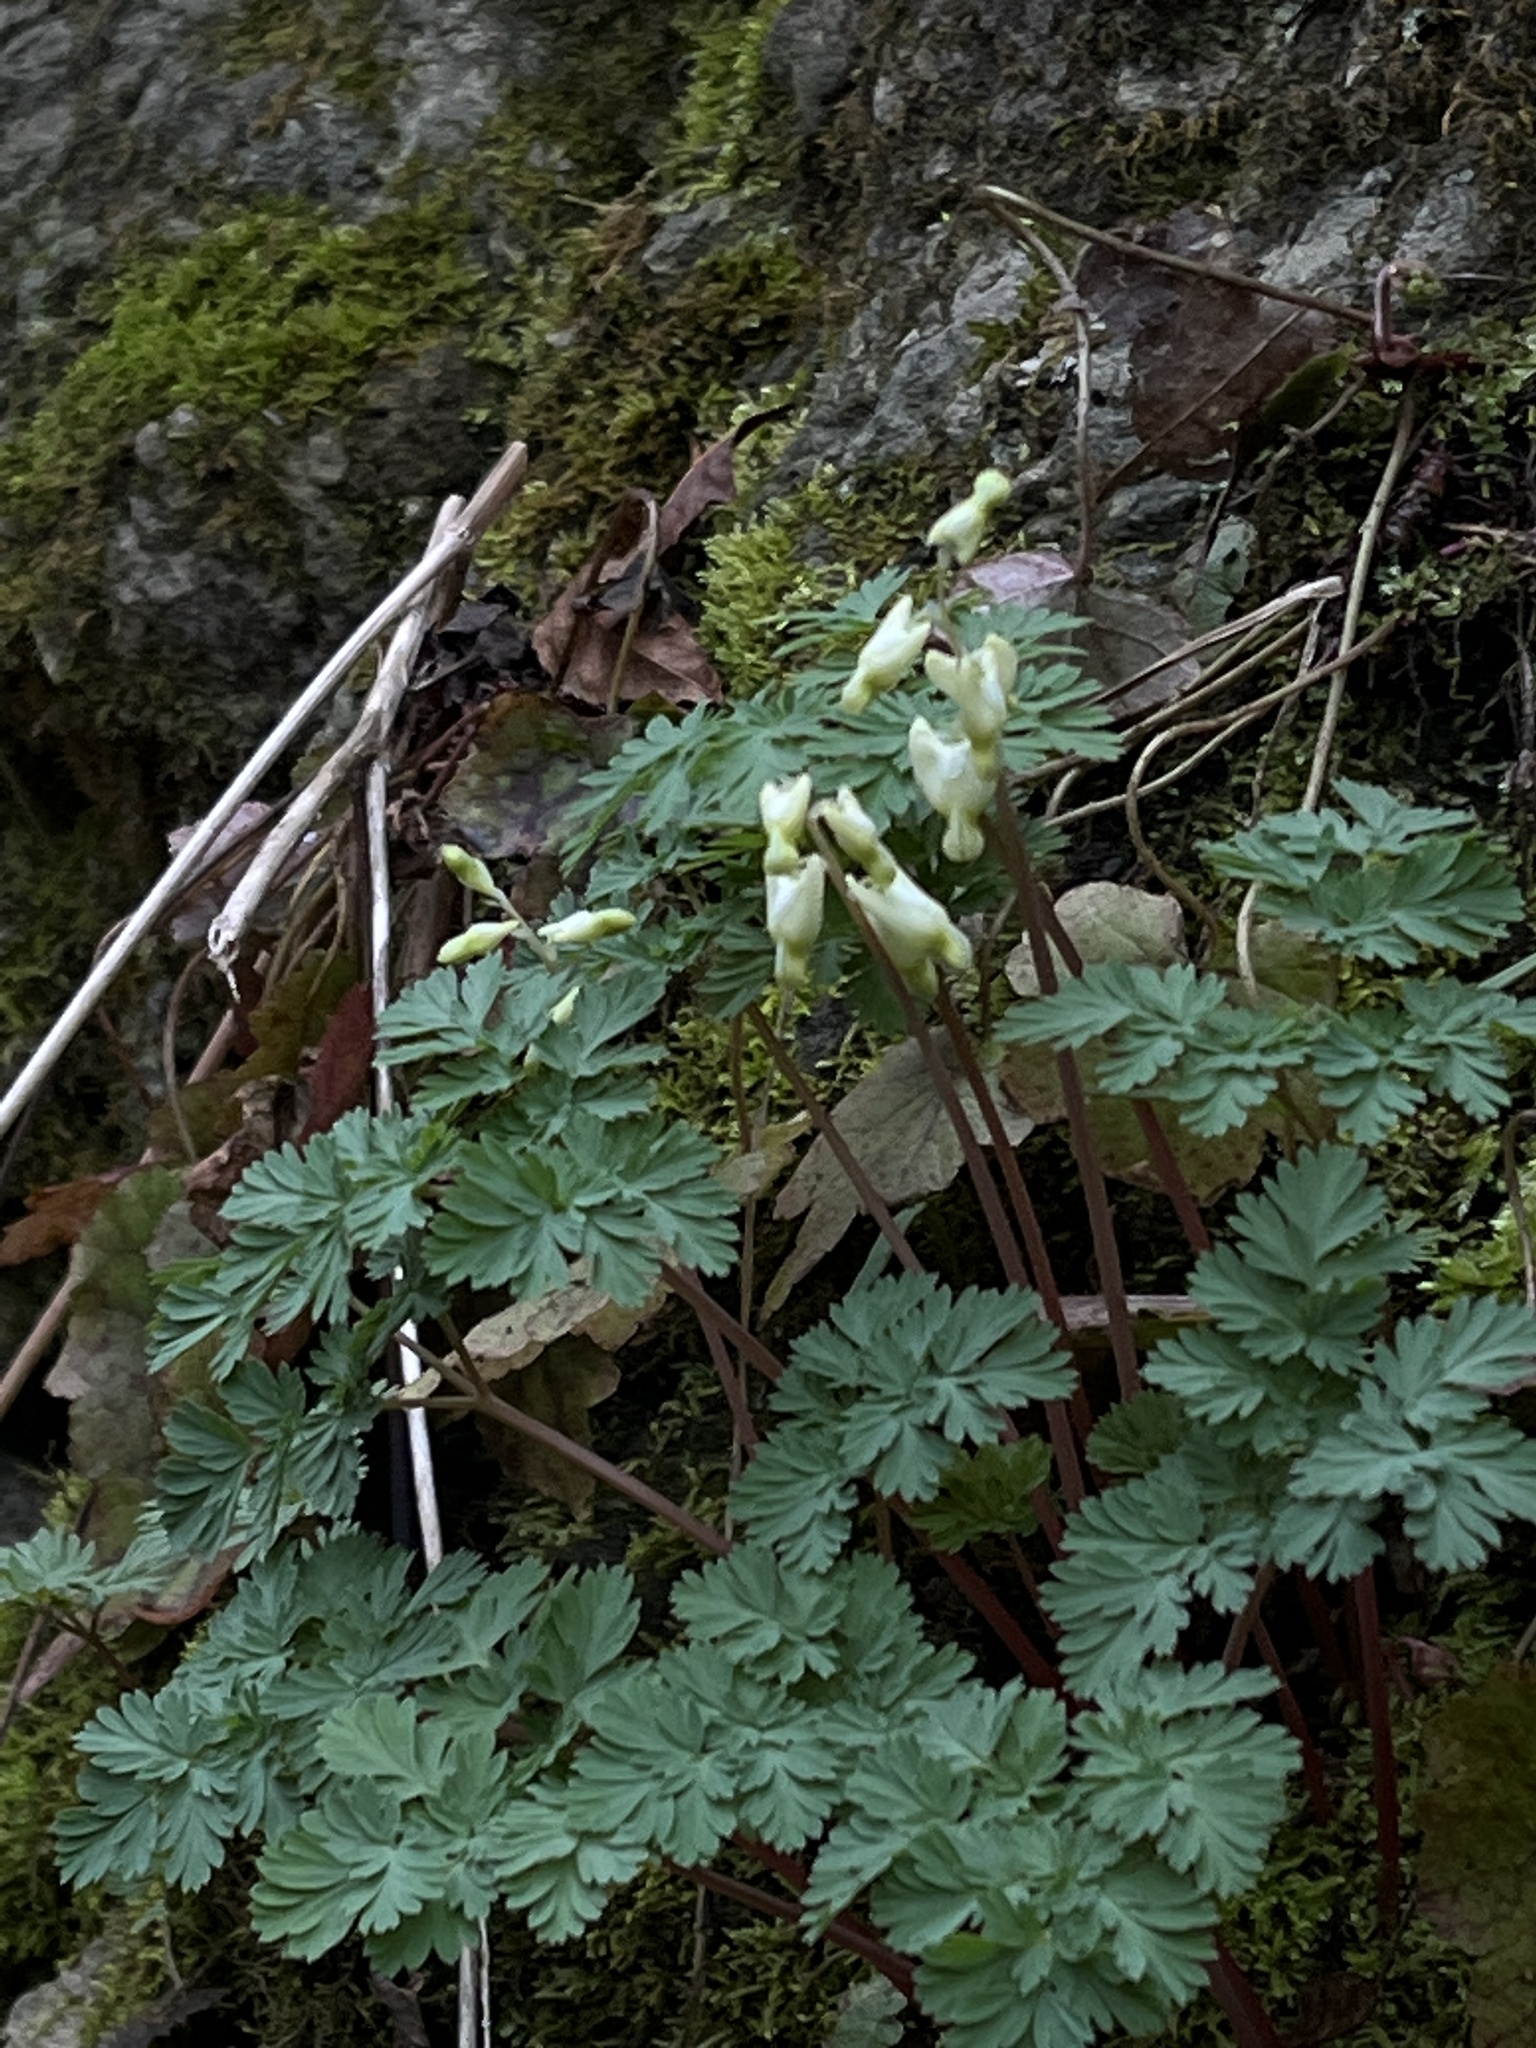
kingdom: Plantae
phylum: Tracheophyta
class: Magnoliopsida
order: Ranunculales
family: Papaveraceae
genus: Dicentra
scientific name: Dicentra cucullaria
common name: Dutchman's breeches
